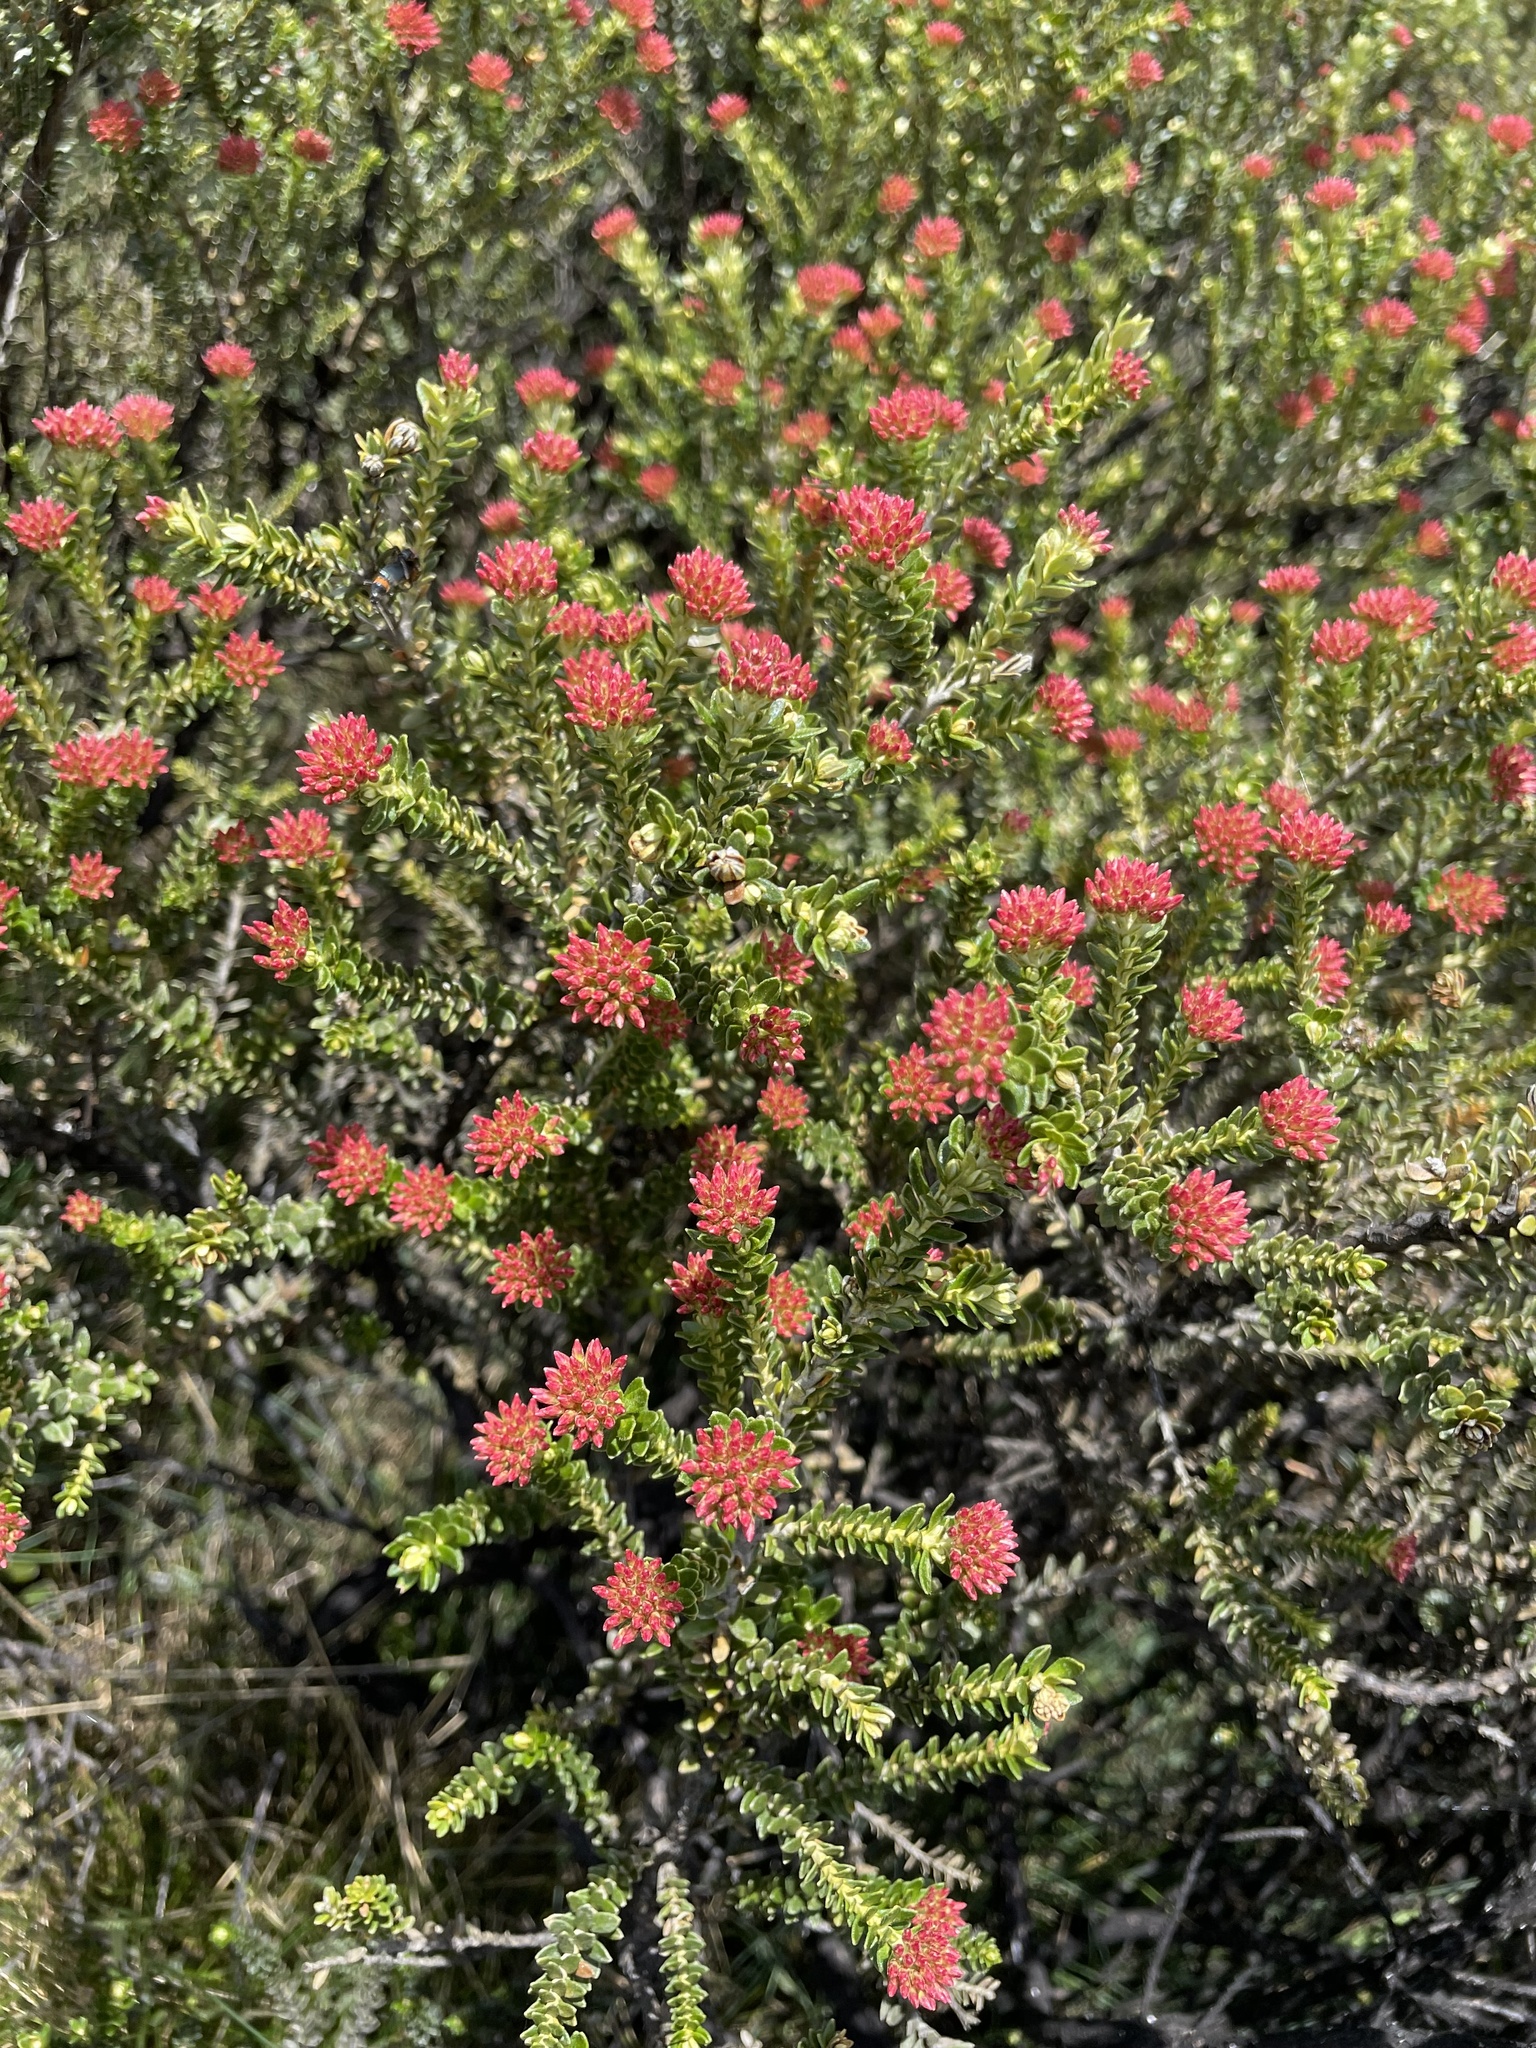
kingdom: Plantae
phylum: Tracheophyta
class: Magnoliopsida
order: Asterales
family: Asteraceae
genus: Ozothamnus
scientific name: Ozothamnus alpinus
